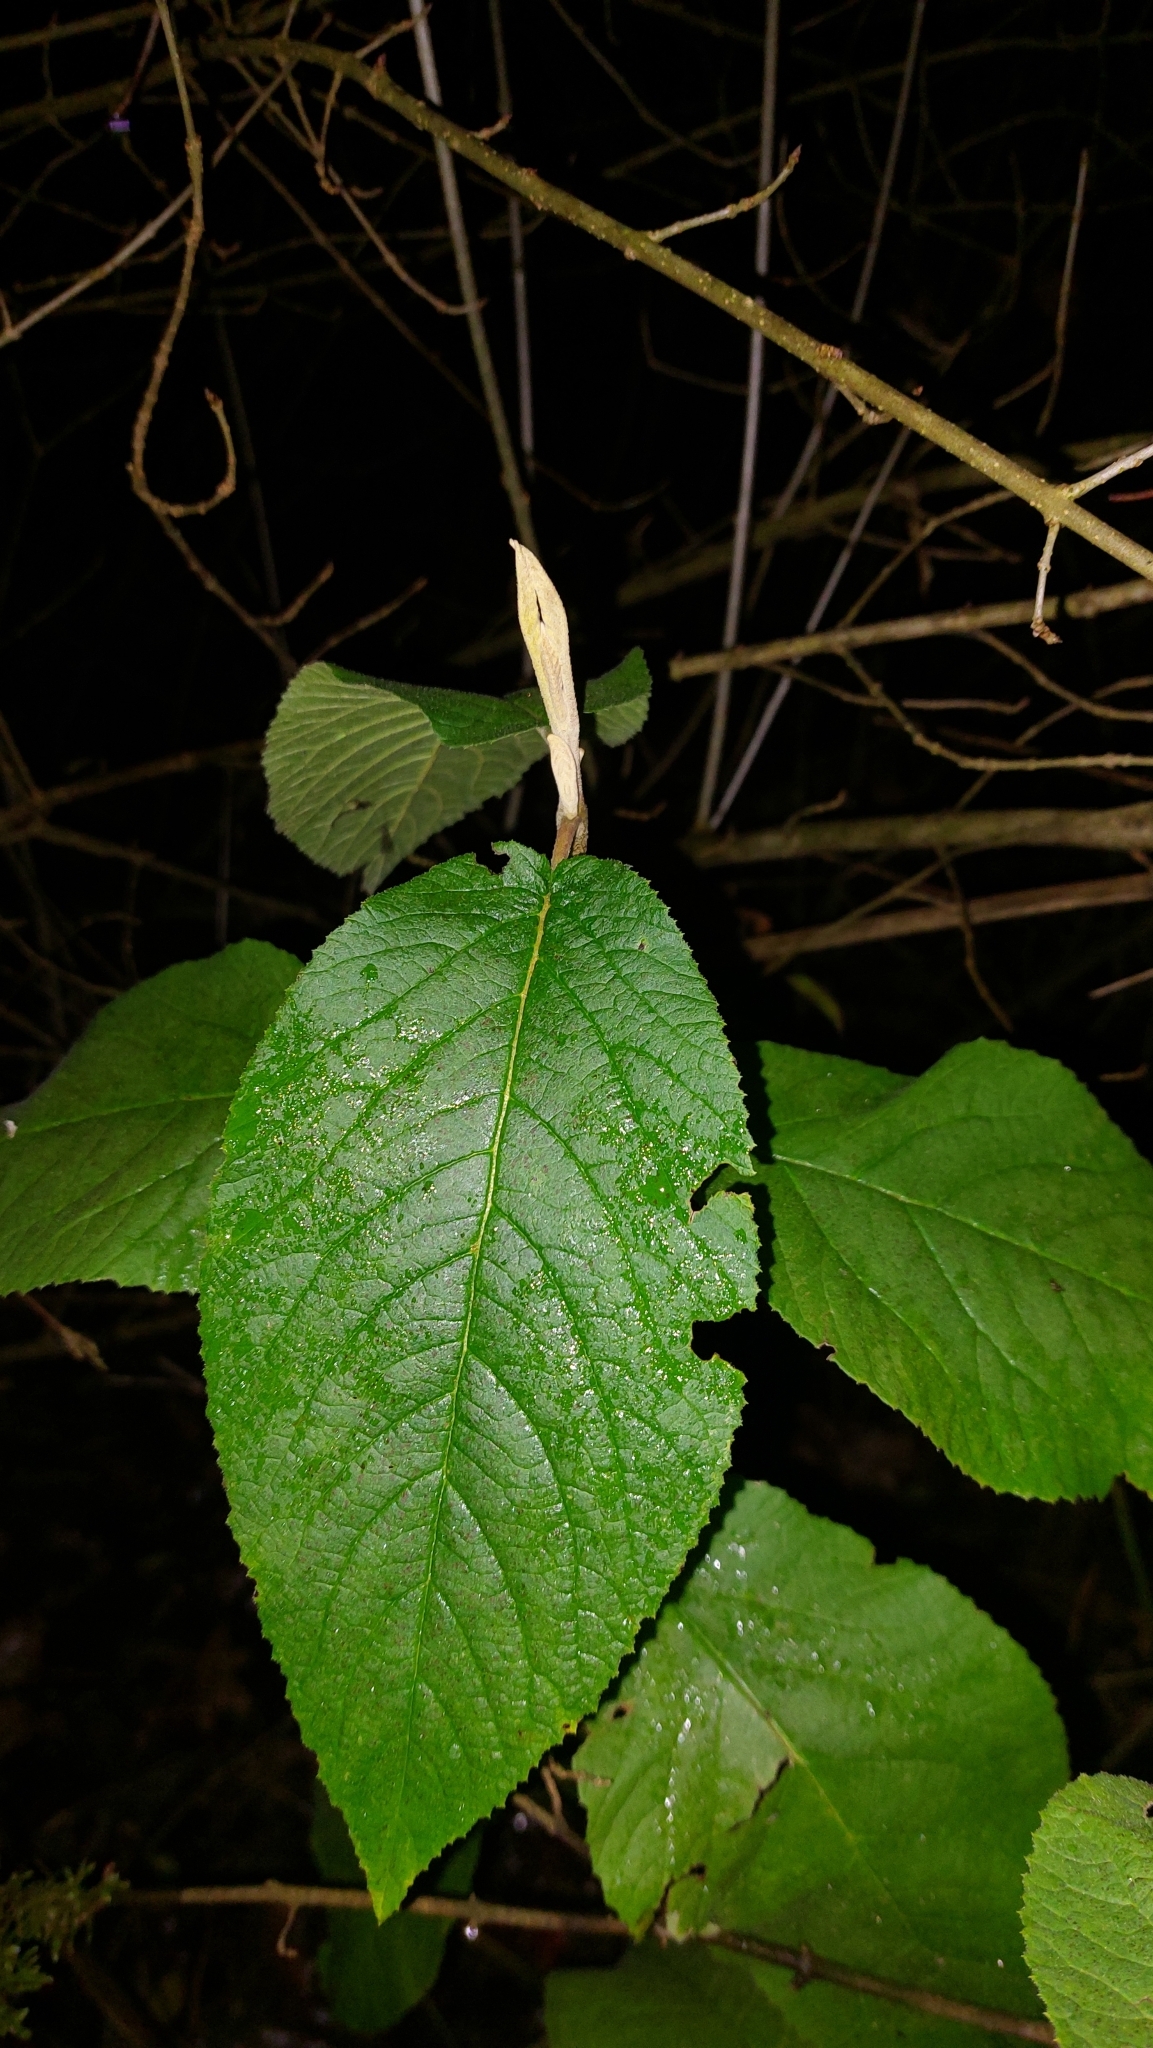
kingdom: Plantae
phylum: Tracheophyta
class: Magnoliopsida
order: Dipsacales
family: Viburnaceae
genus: Viburnum
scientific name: Viburnum lantana
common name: Wayfaring tree
